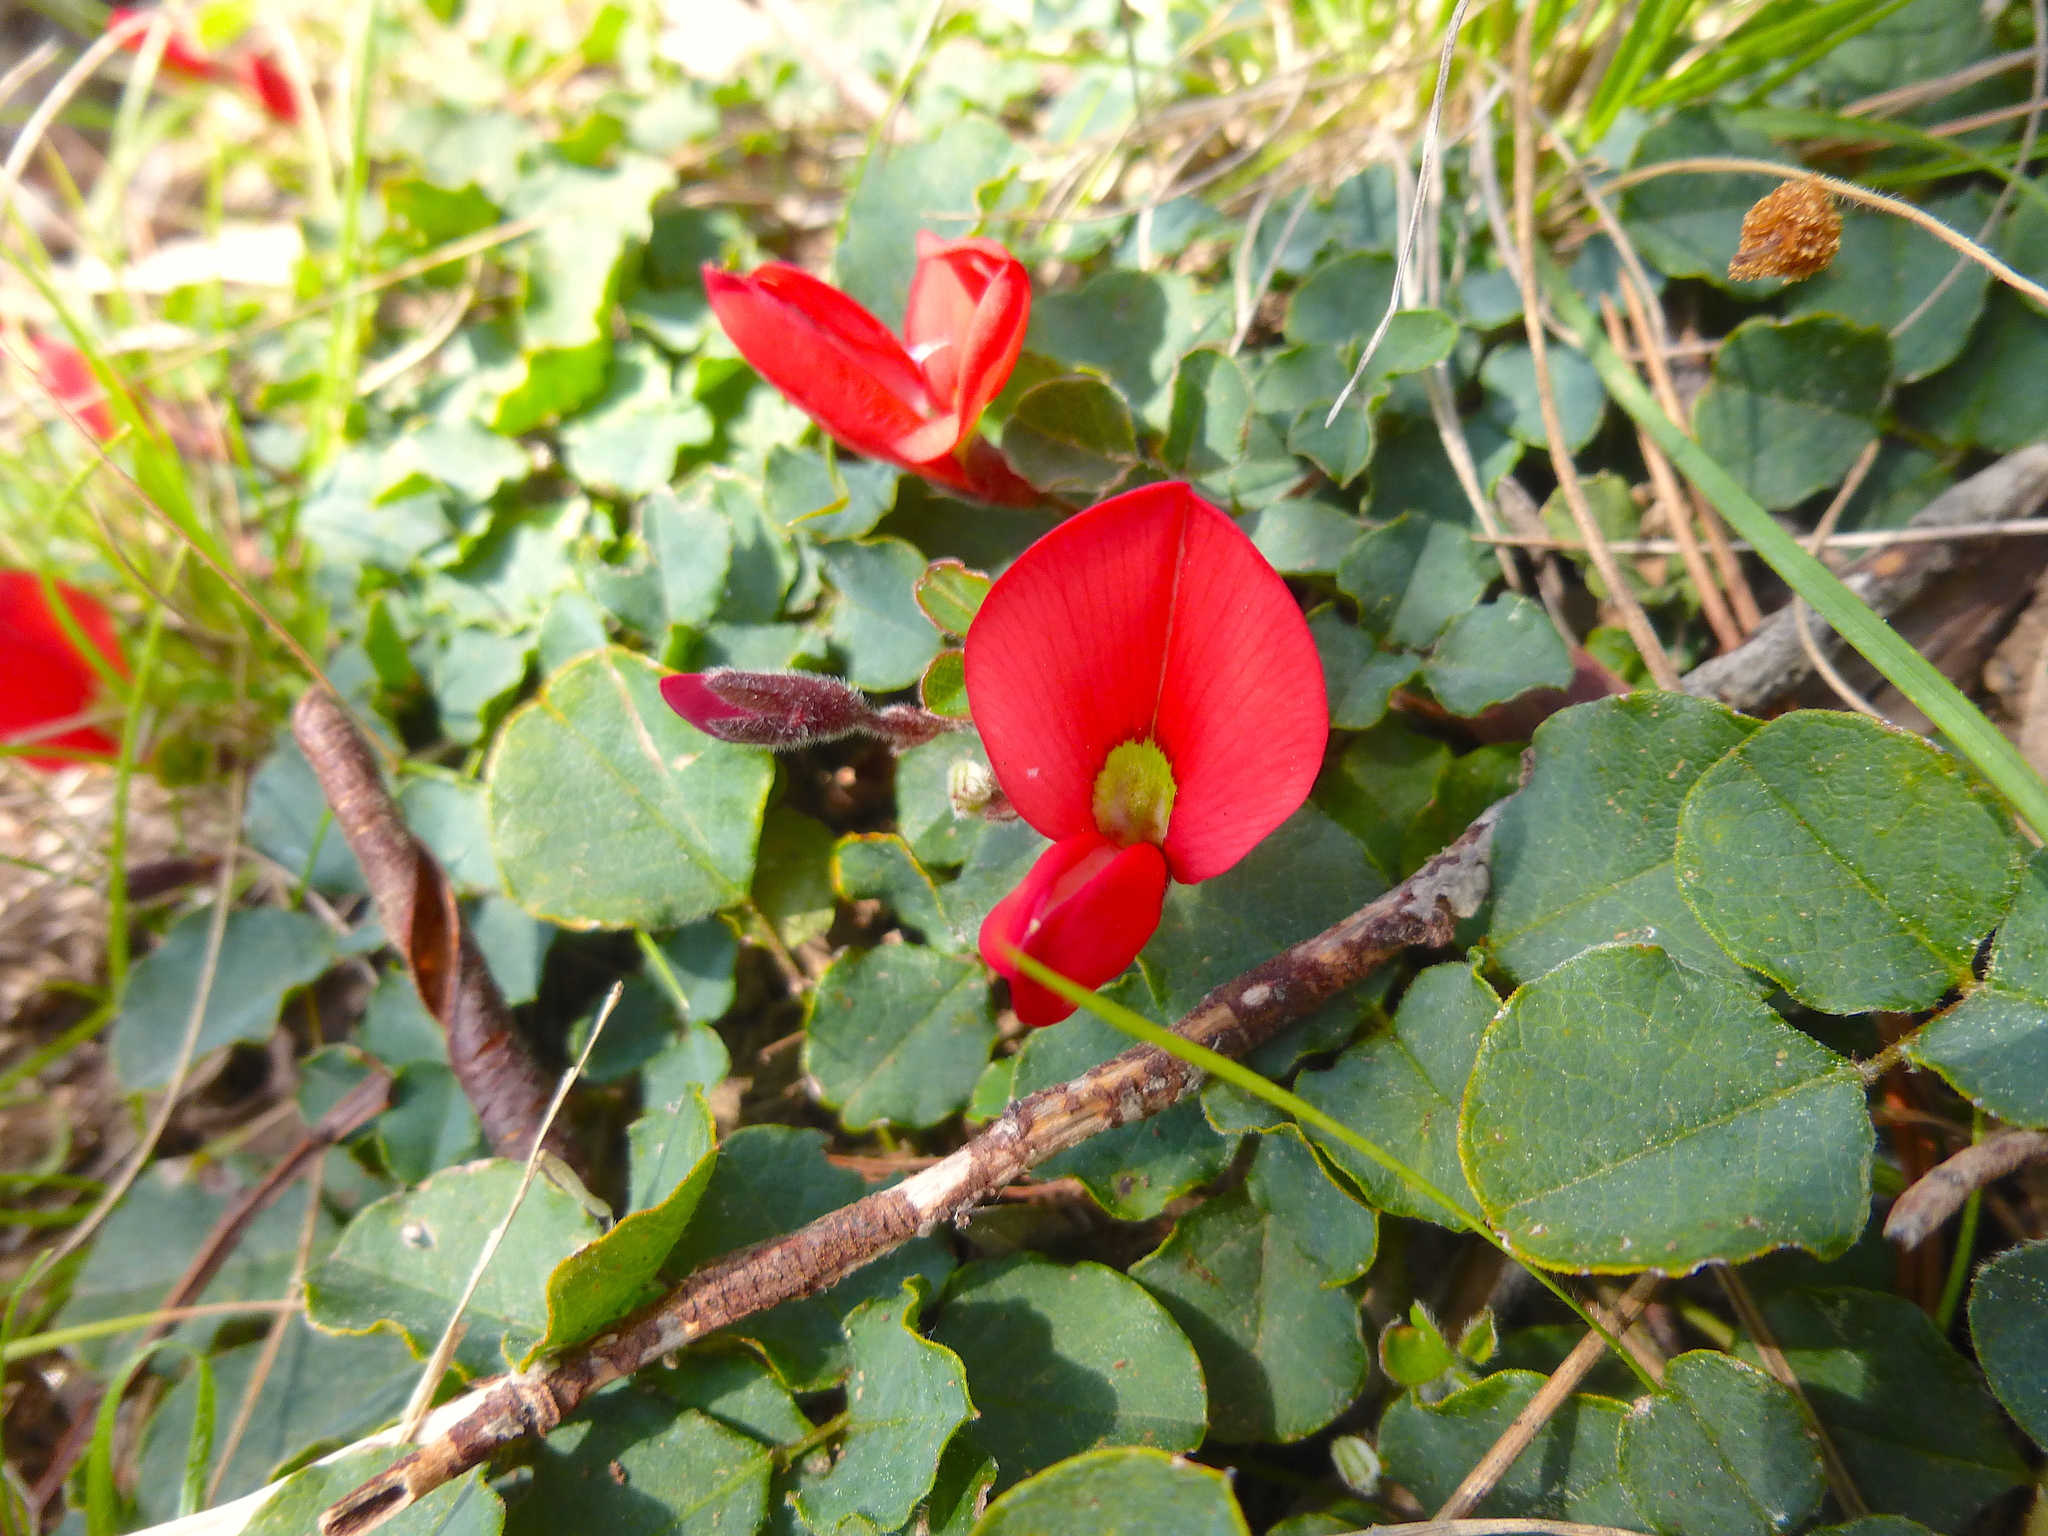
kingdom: Plantae
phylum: Tracheophyta
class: Magnoliopsida
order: Fabales
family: Fabaceae
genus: Kennedia
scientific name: Kennedia prostrata
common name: Running-postman
